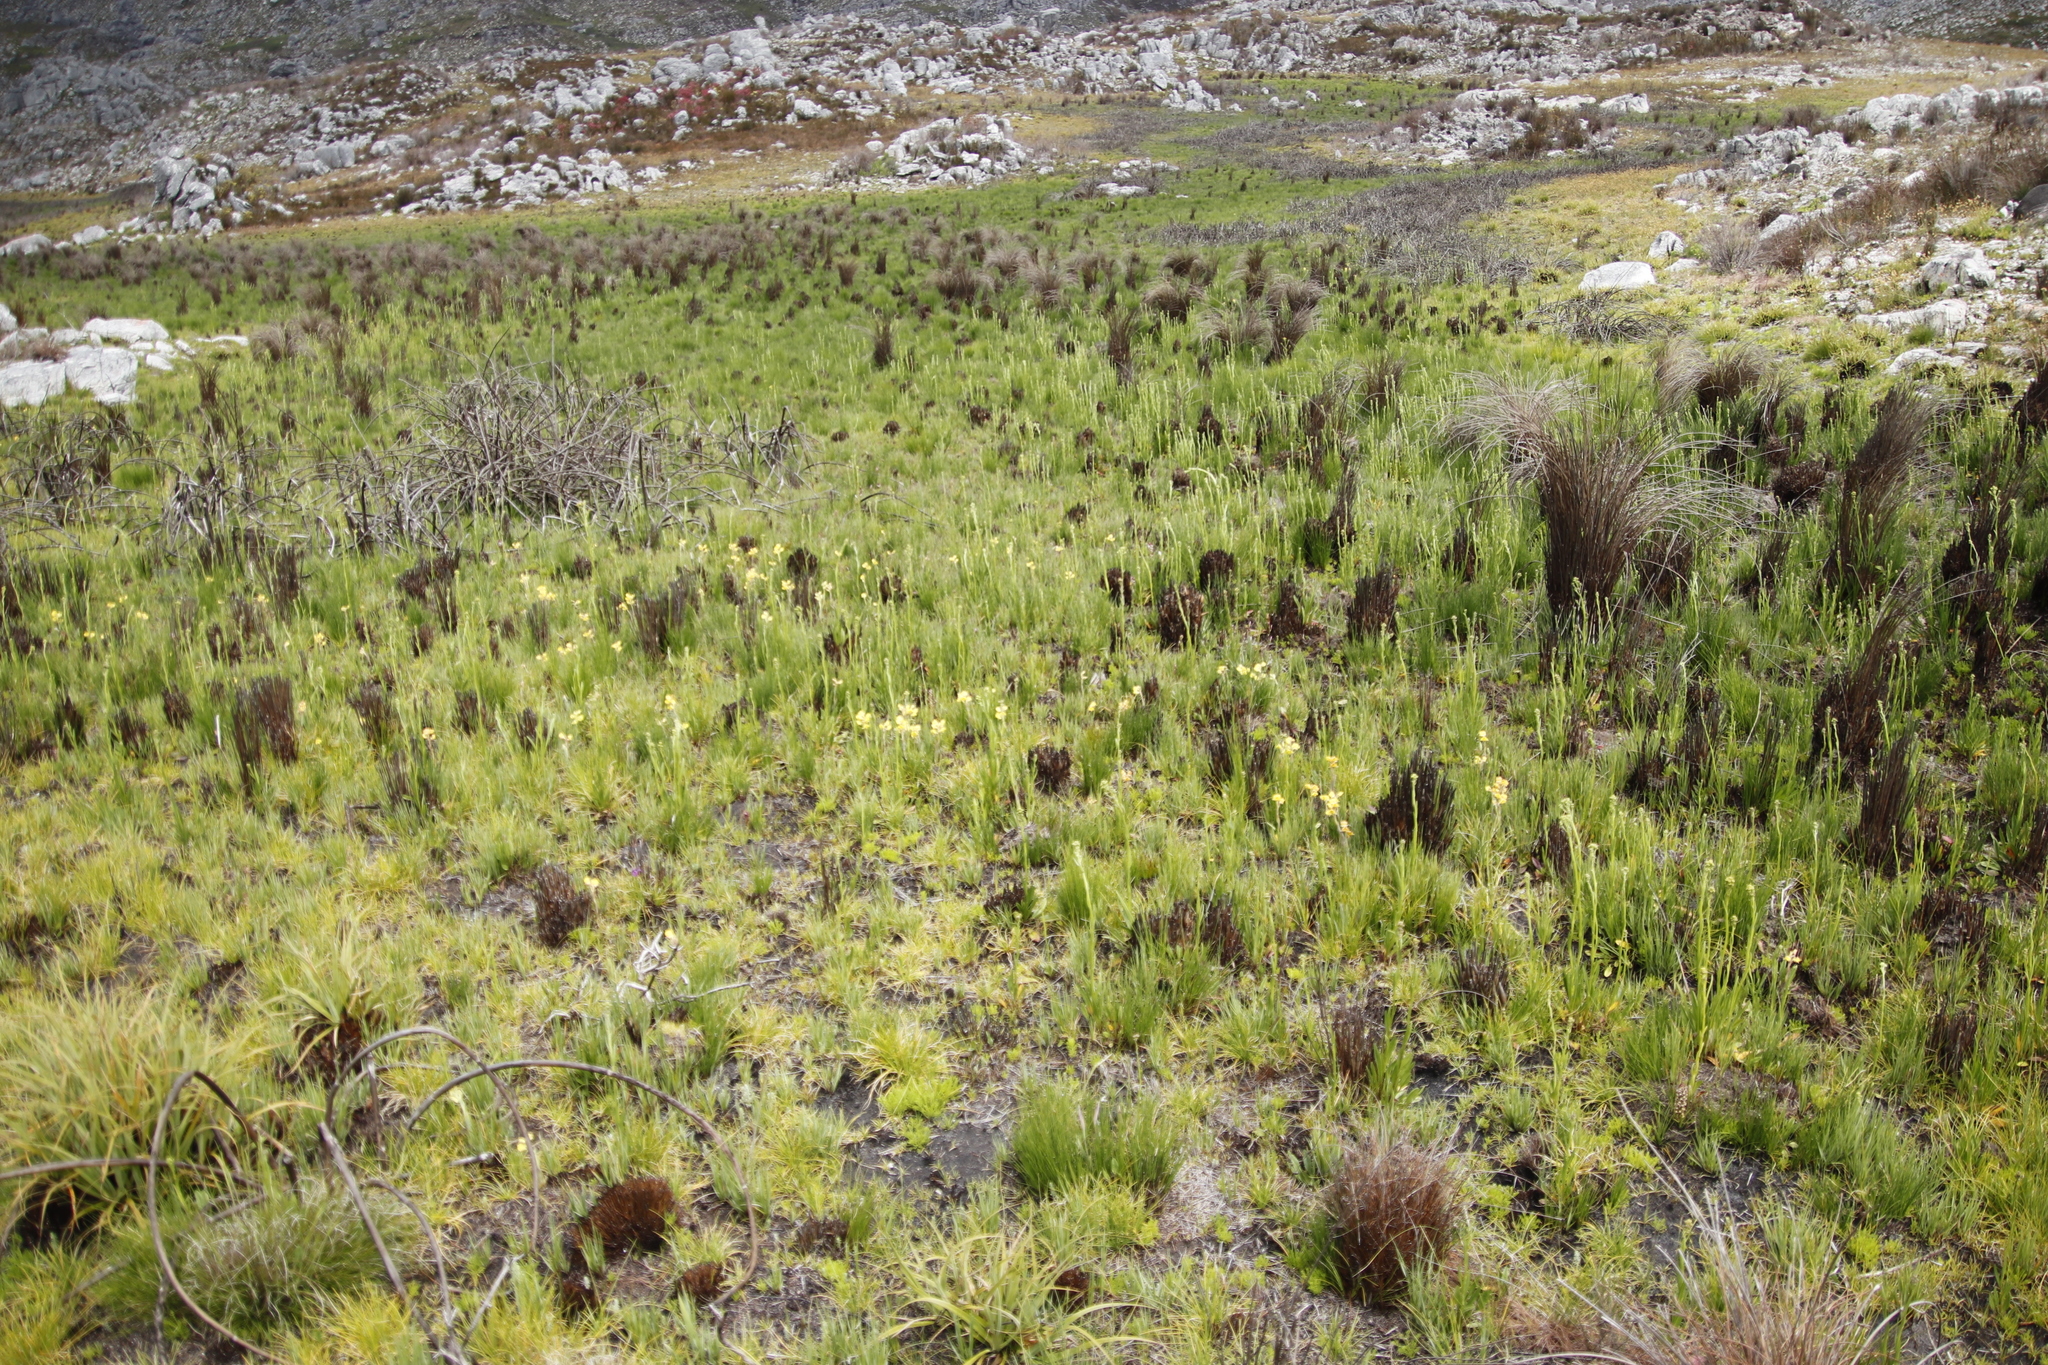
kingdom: Plantae
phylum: Tracheophyta
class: Magnoliopsida
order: Asterales
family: Asteraceae
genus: Senecio
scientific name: Senecio crispus
